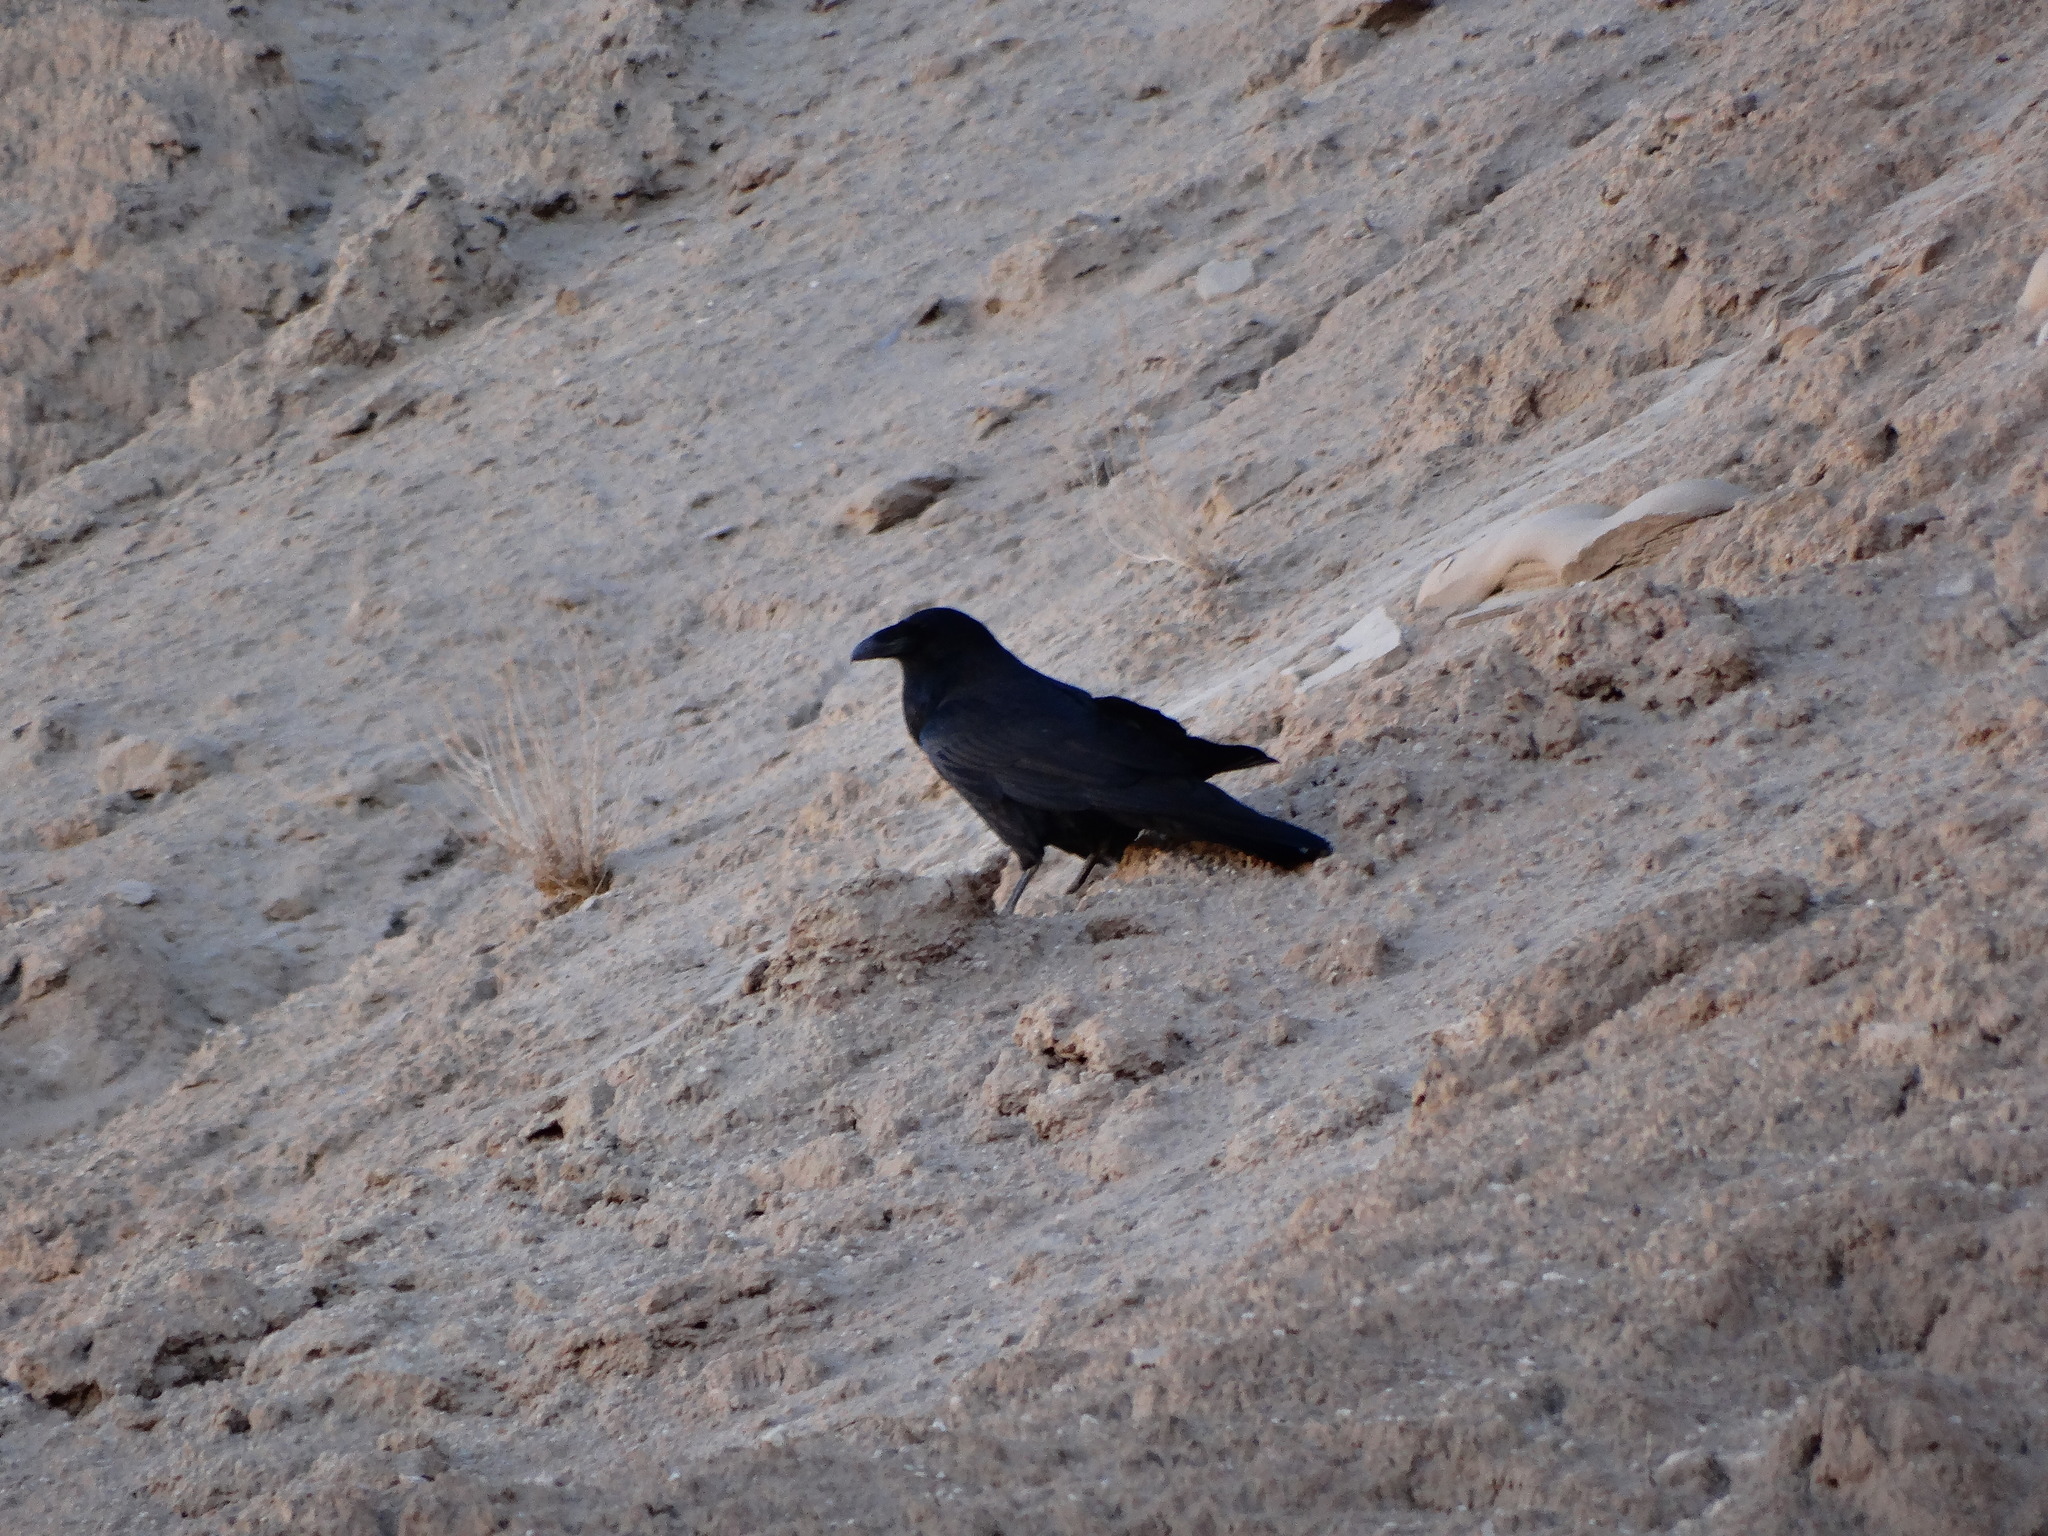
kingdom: Animalia
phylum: Chordata
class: Aves
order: Passeriformes
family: Corvidae
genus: Corvus
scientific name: Corvus corax
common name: Common raven
